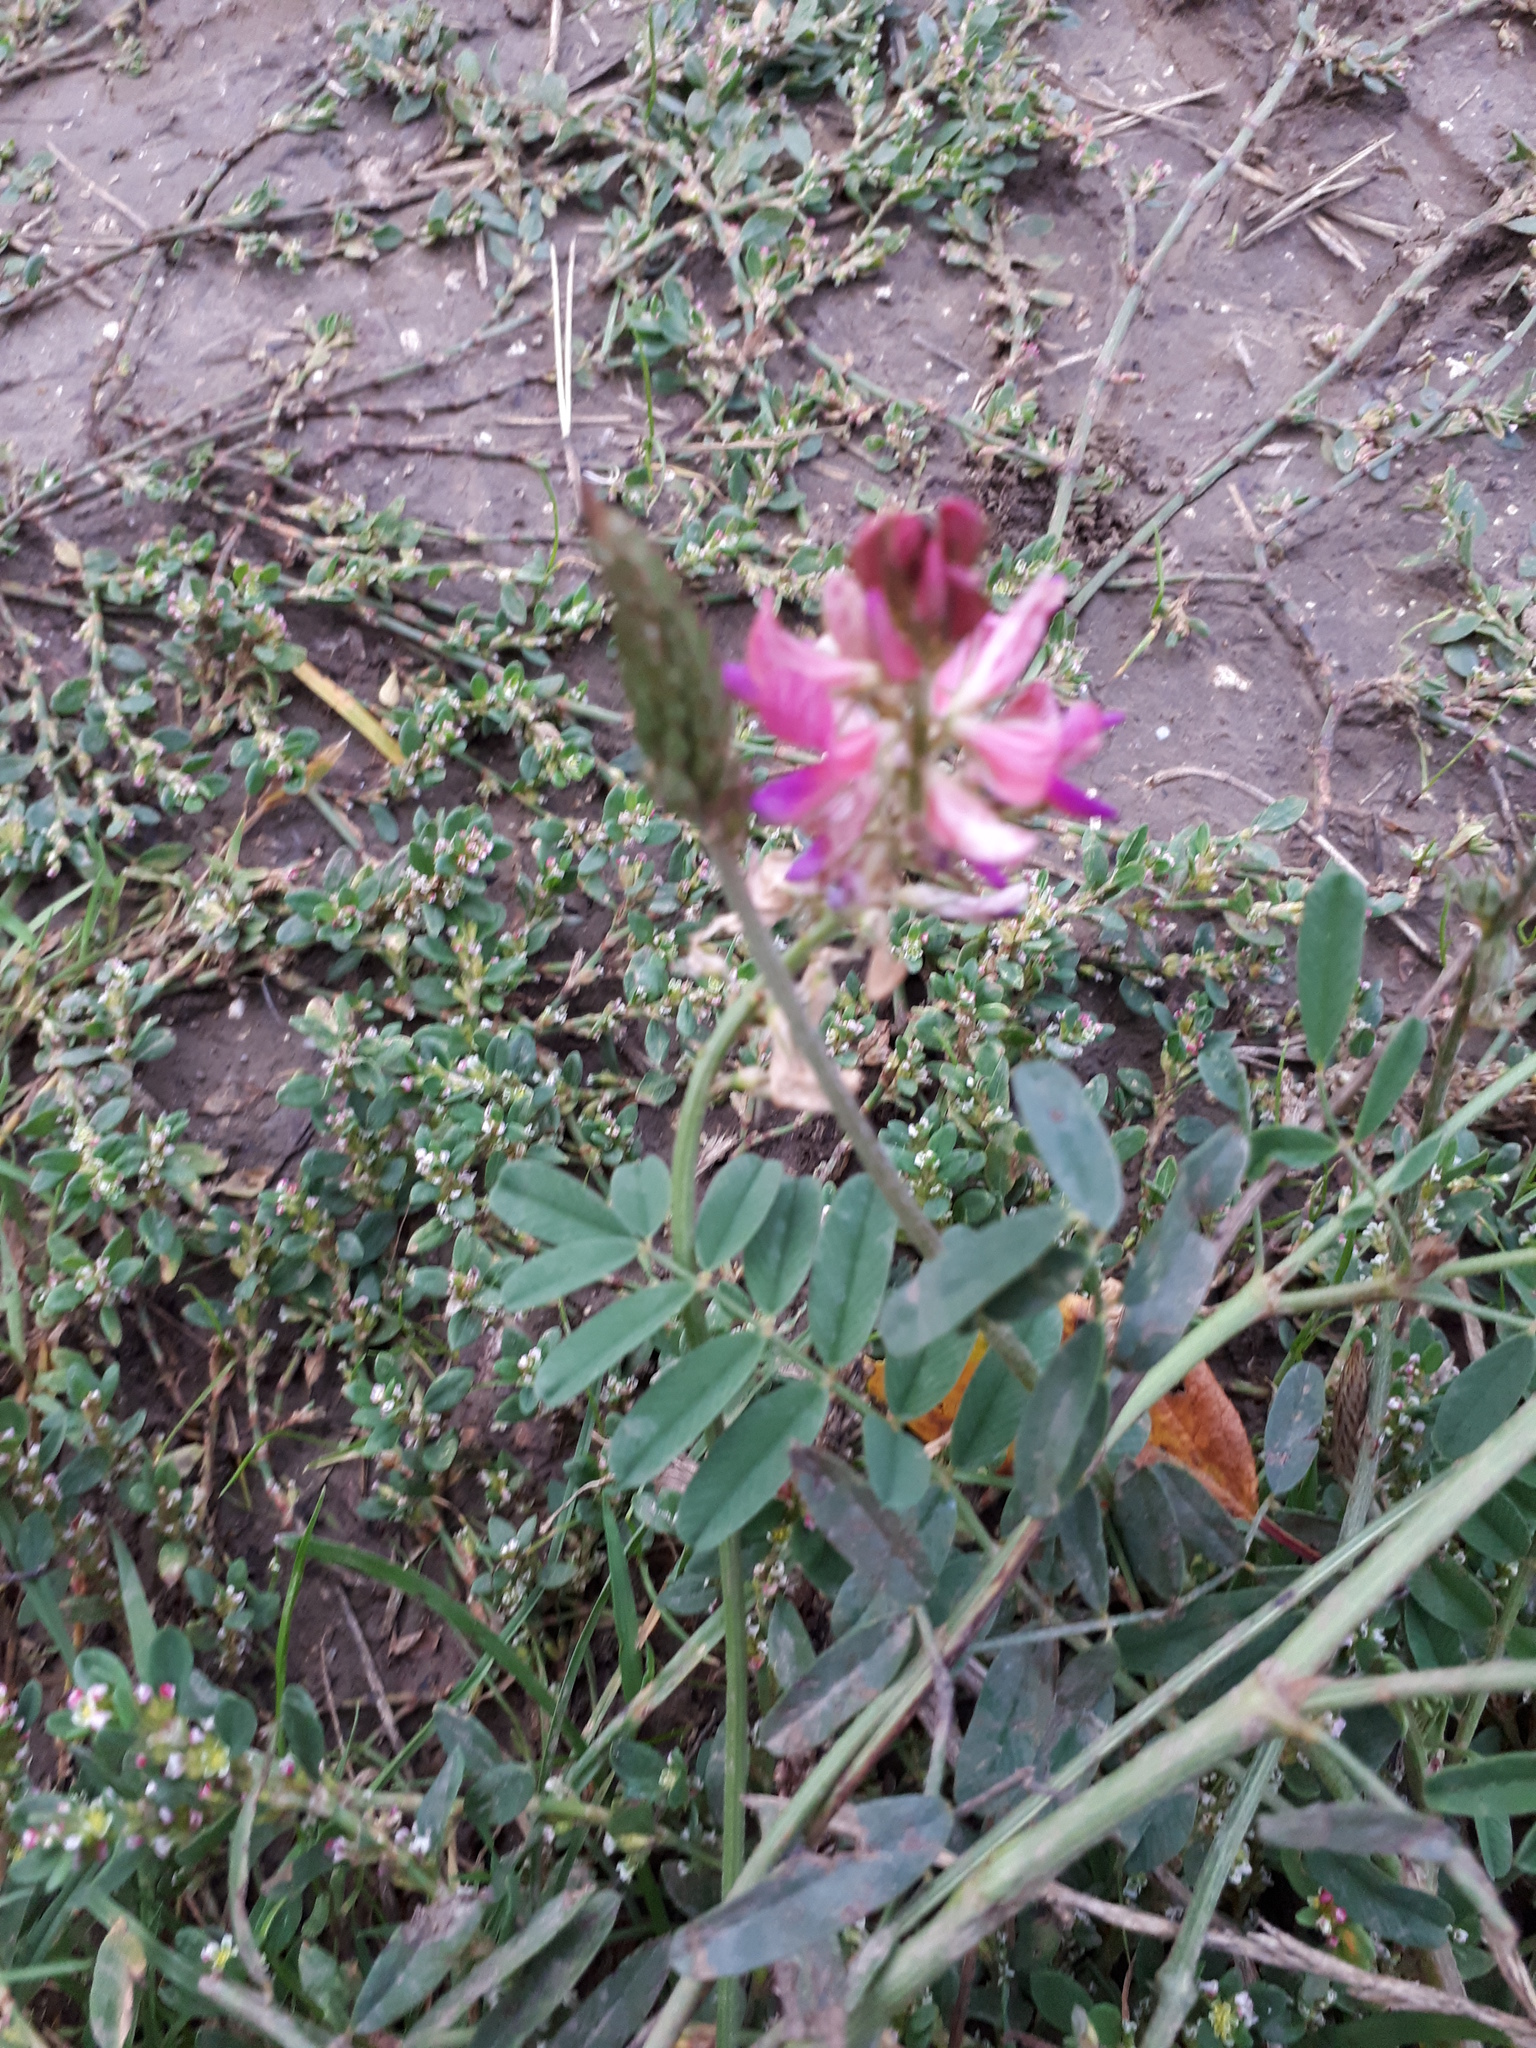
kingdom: Plantae
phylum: Tracheophyta
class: Magnoliopsida
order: Fabales
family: Fabaceae
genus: Onobrychis
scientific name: Onobrychis viciifolia
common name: Sainfoin
